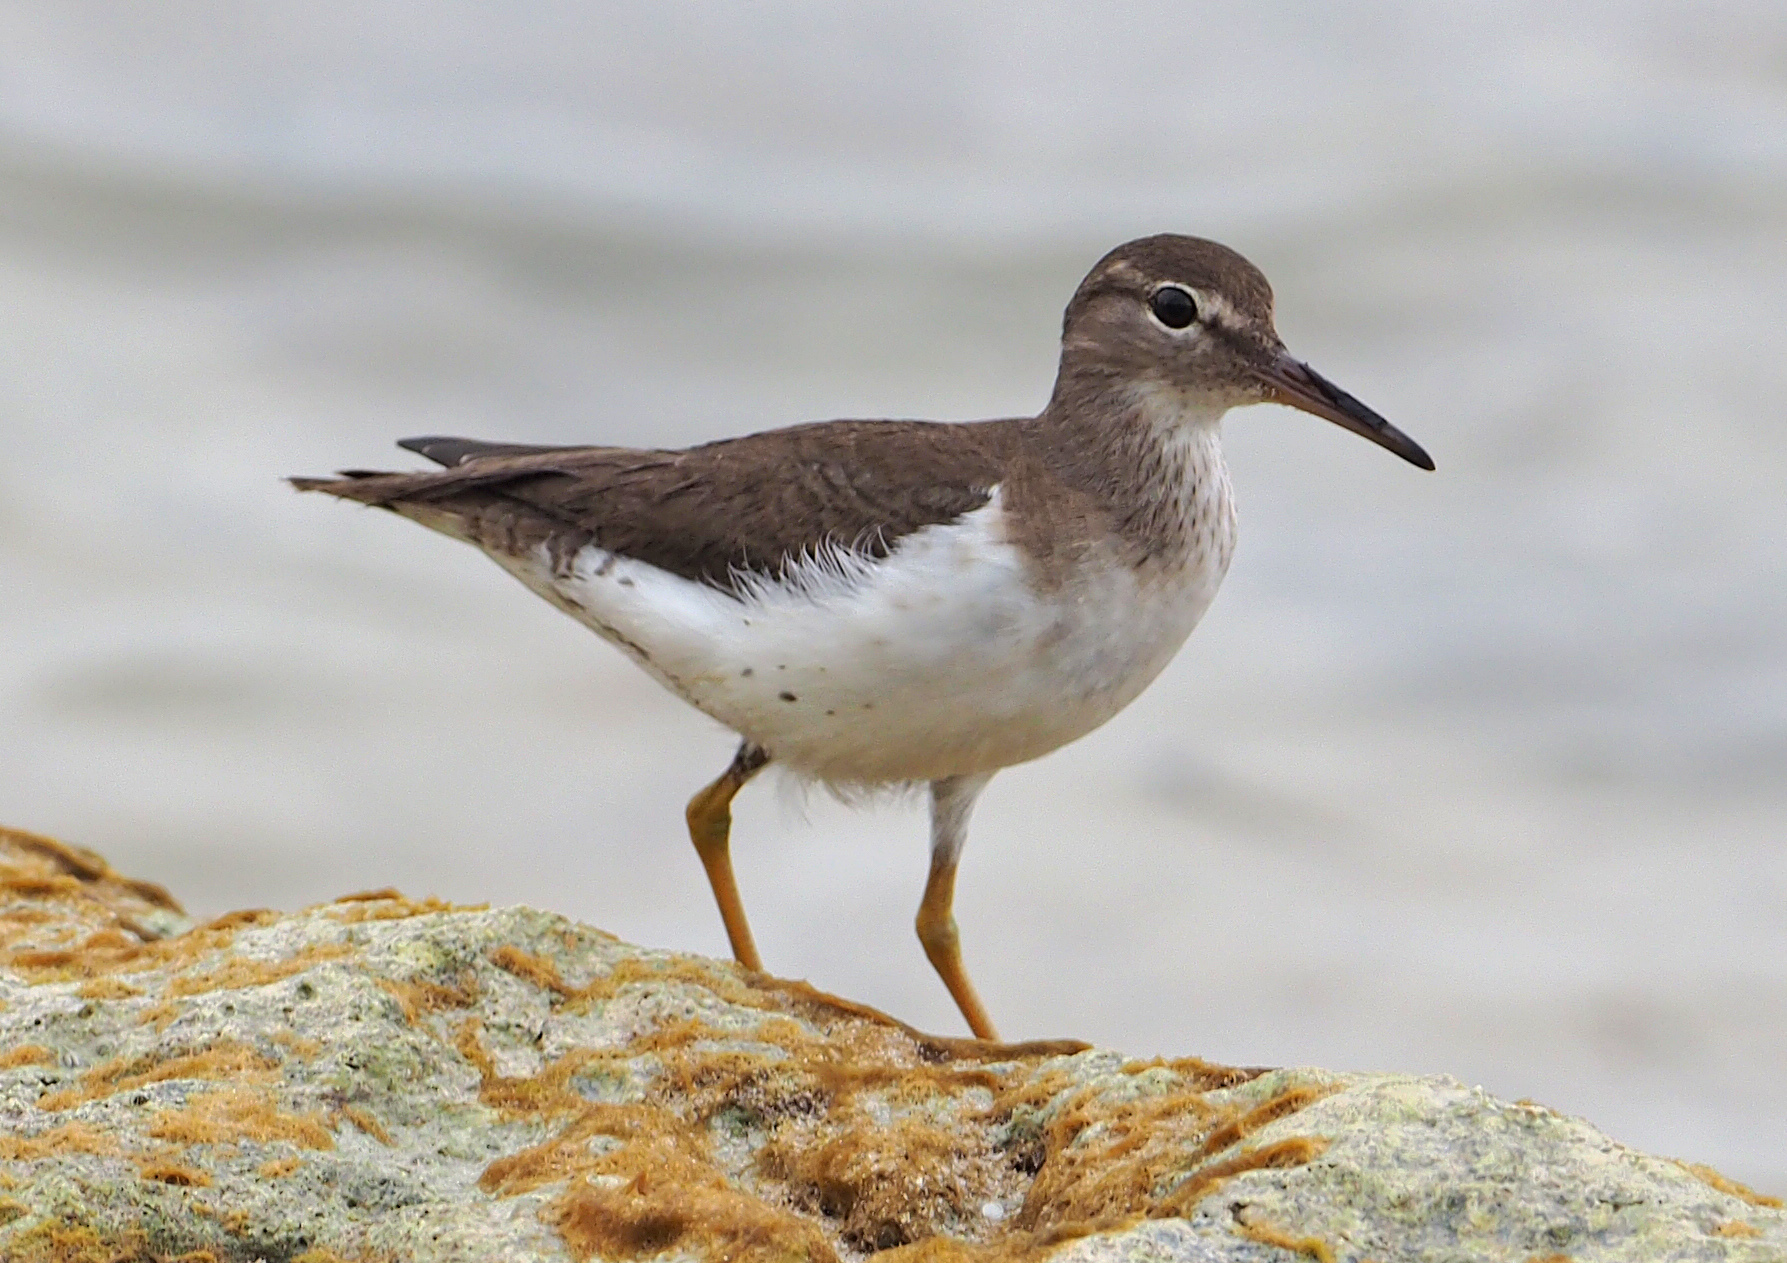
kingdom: Animalia
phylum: Chordata
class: Aves
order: Charadriiformes
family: Scolopacidae
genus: Actitis
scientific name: Actitis macularius
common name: Spotted sandpiper
